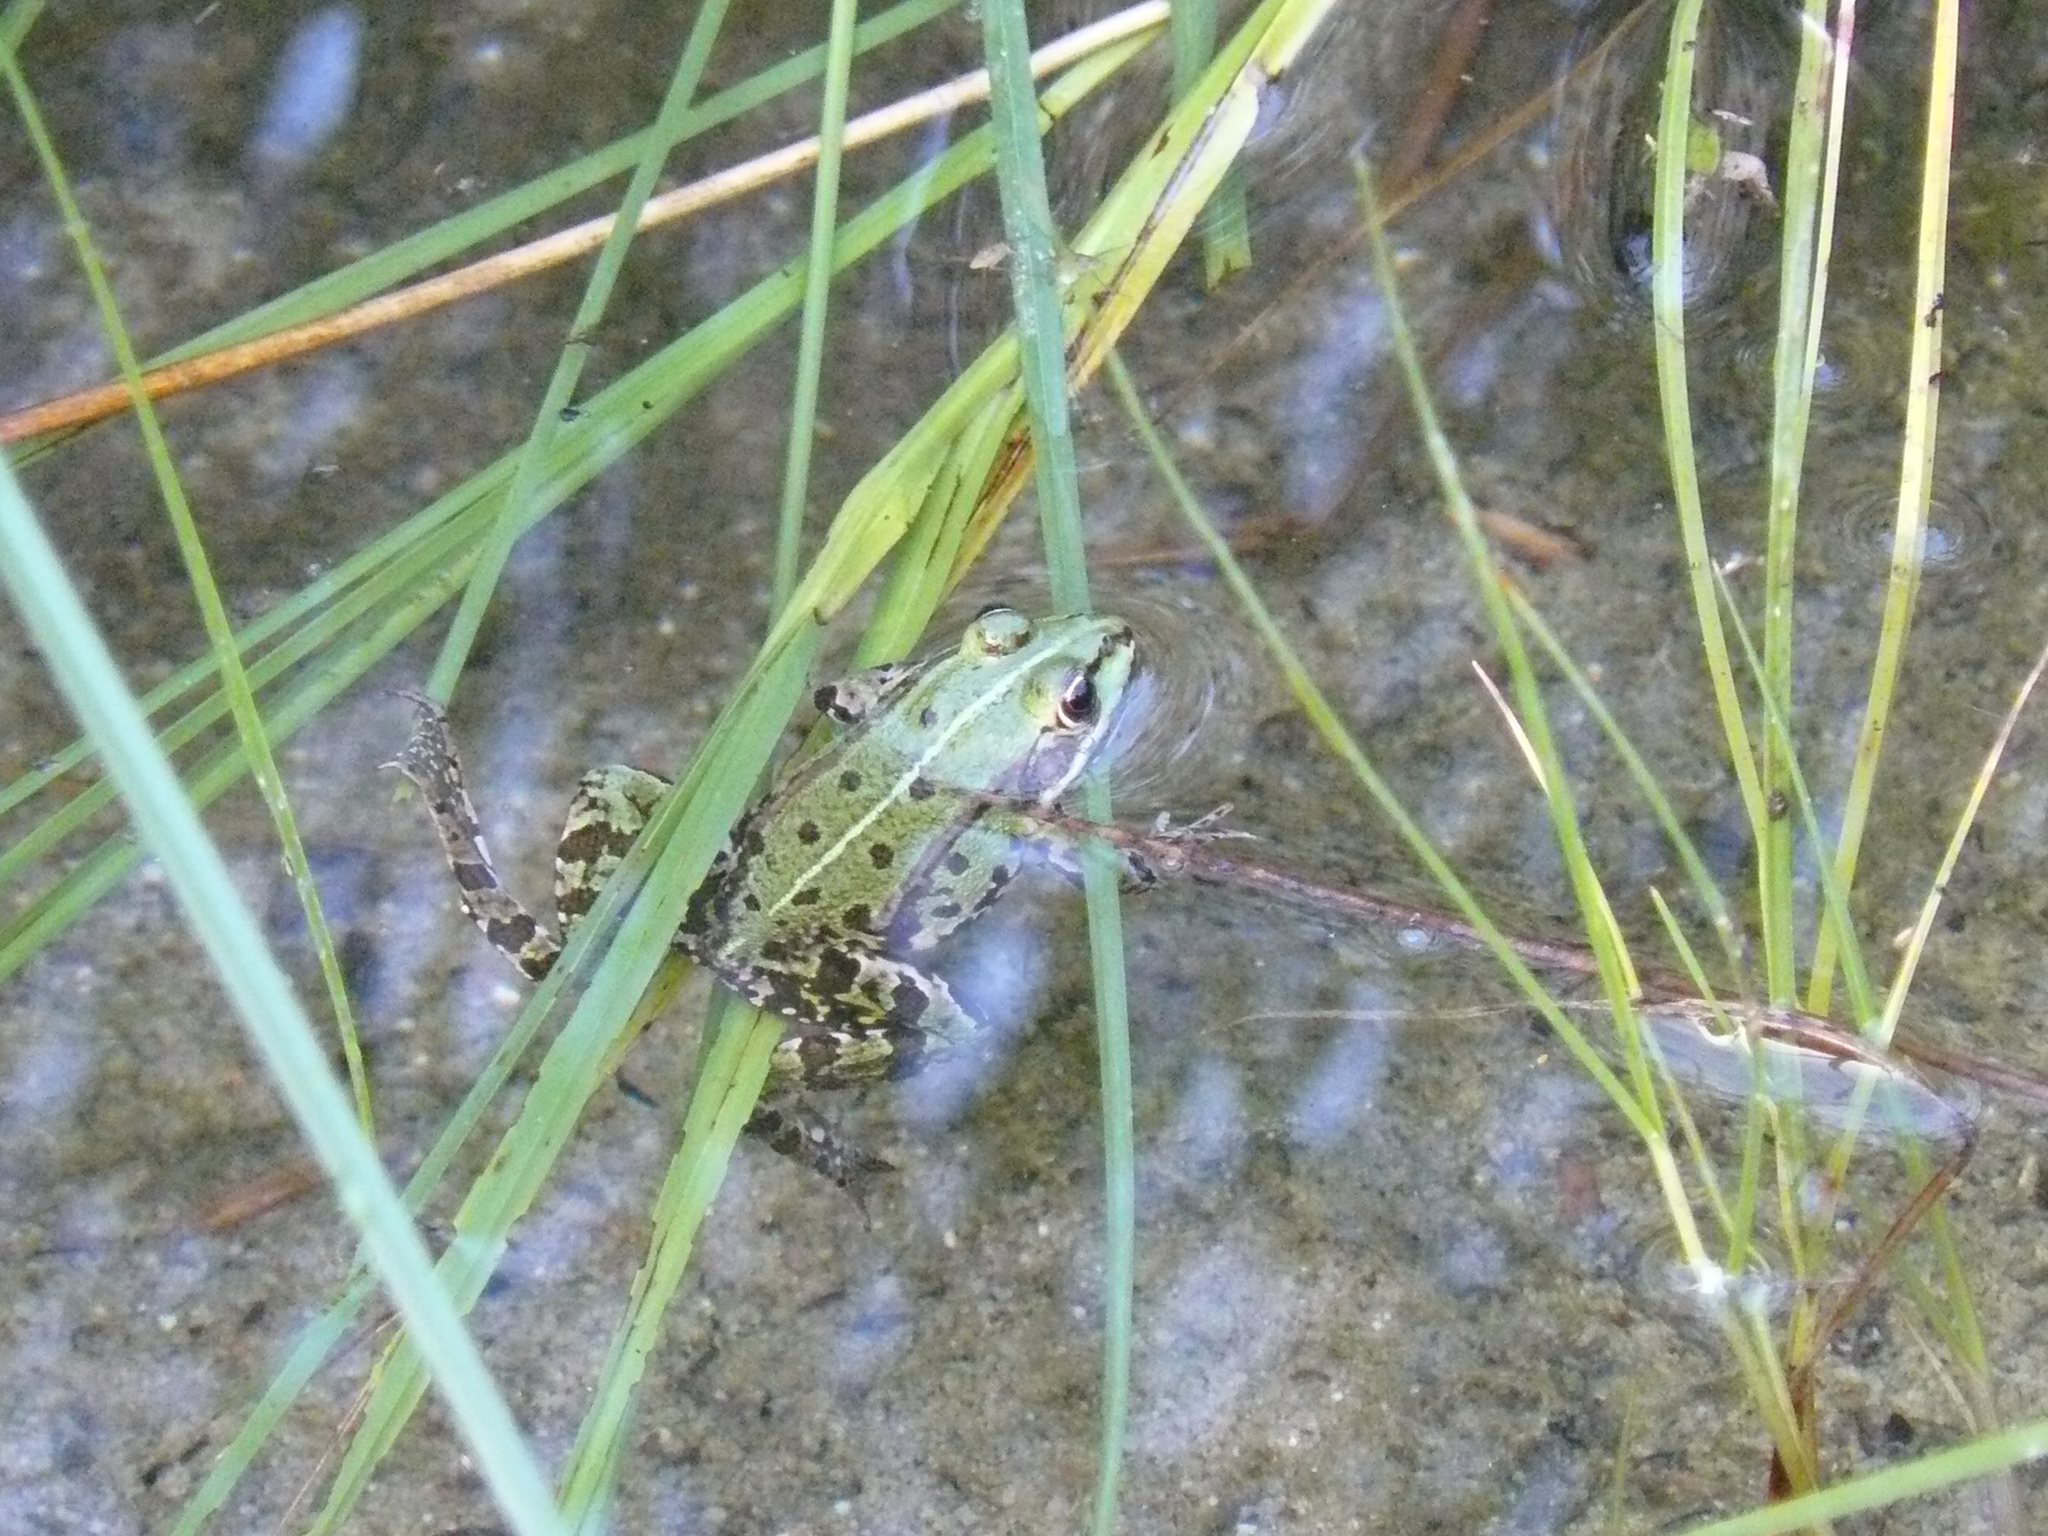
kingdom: Animalia
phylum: Chordata
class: Amphibia
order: Anura
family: Ranidae
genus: Pelophylax
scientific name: Pelophylax
